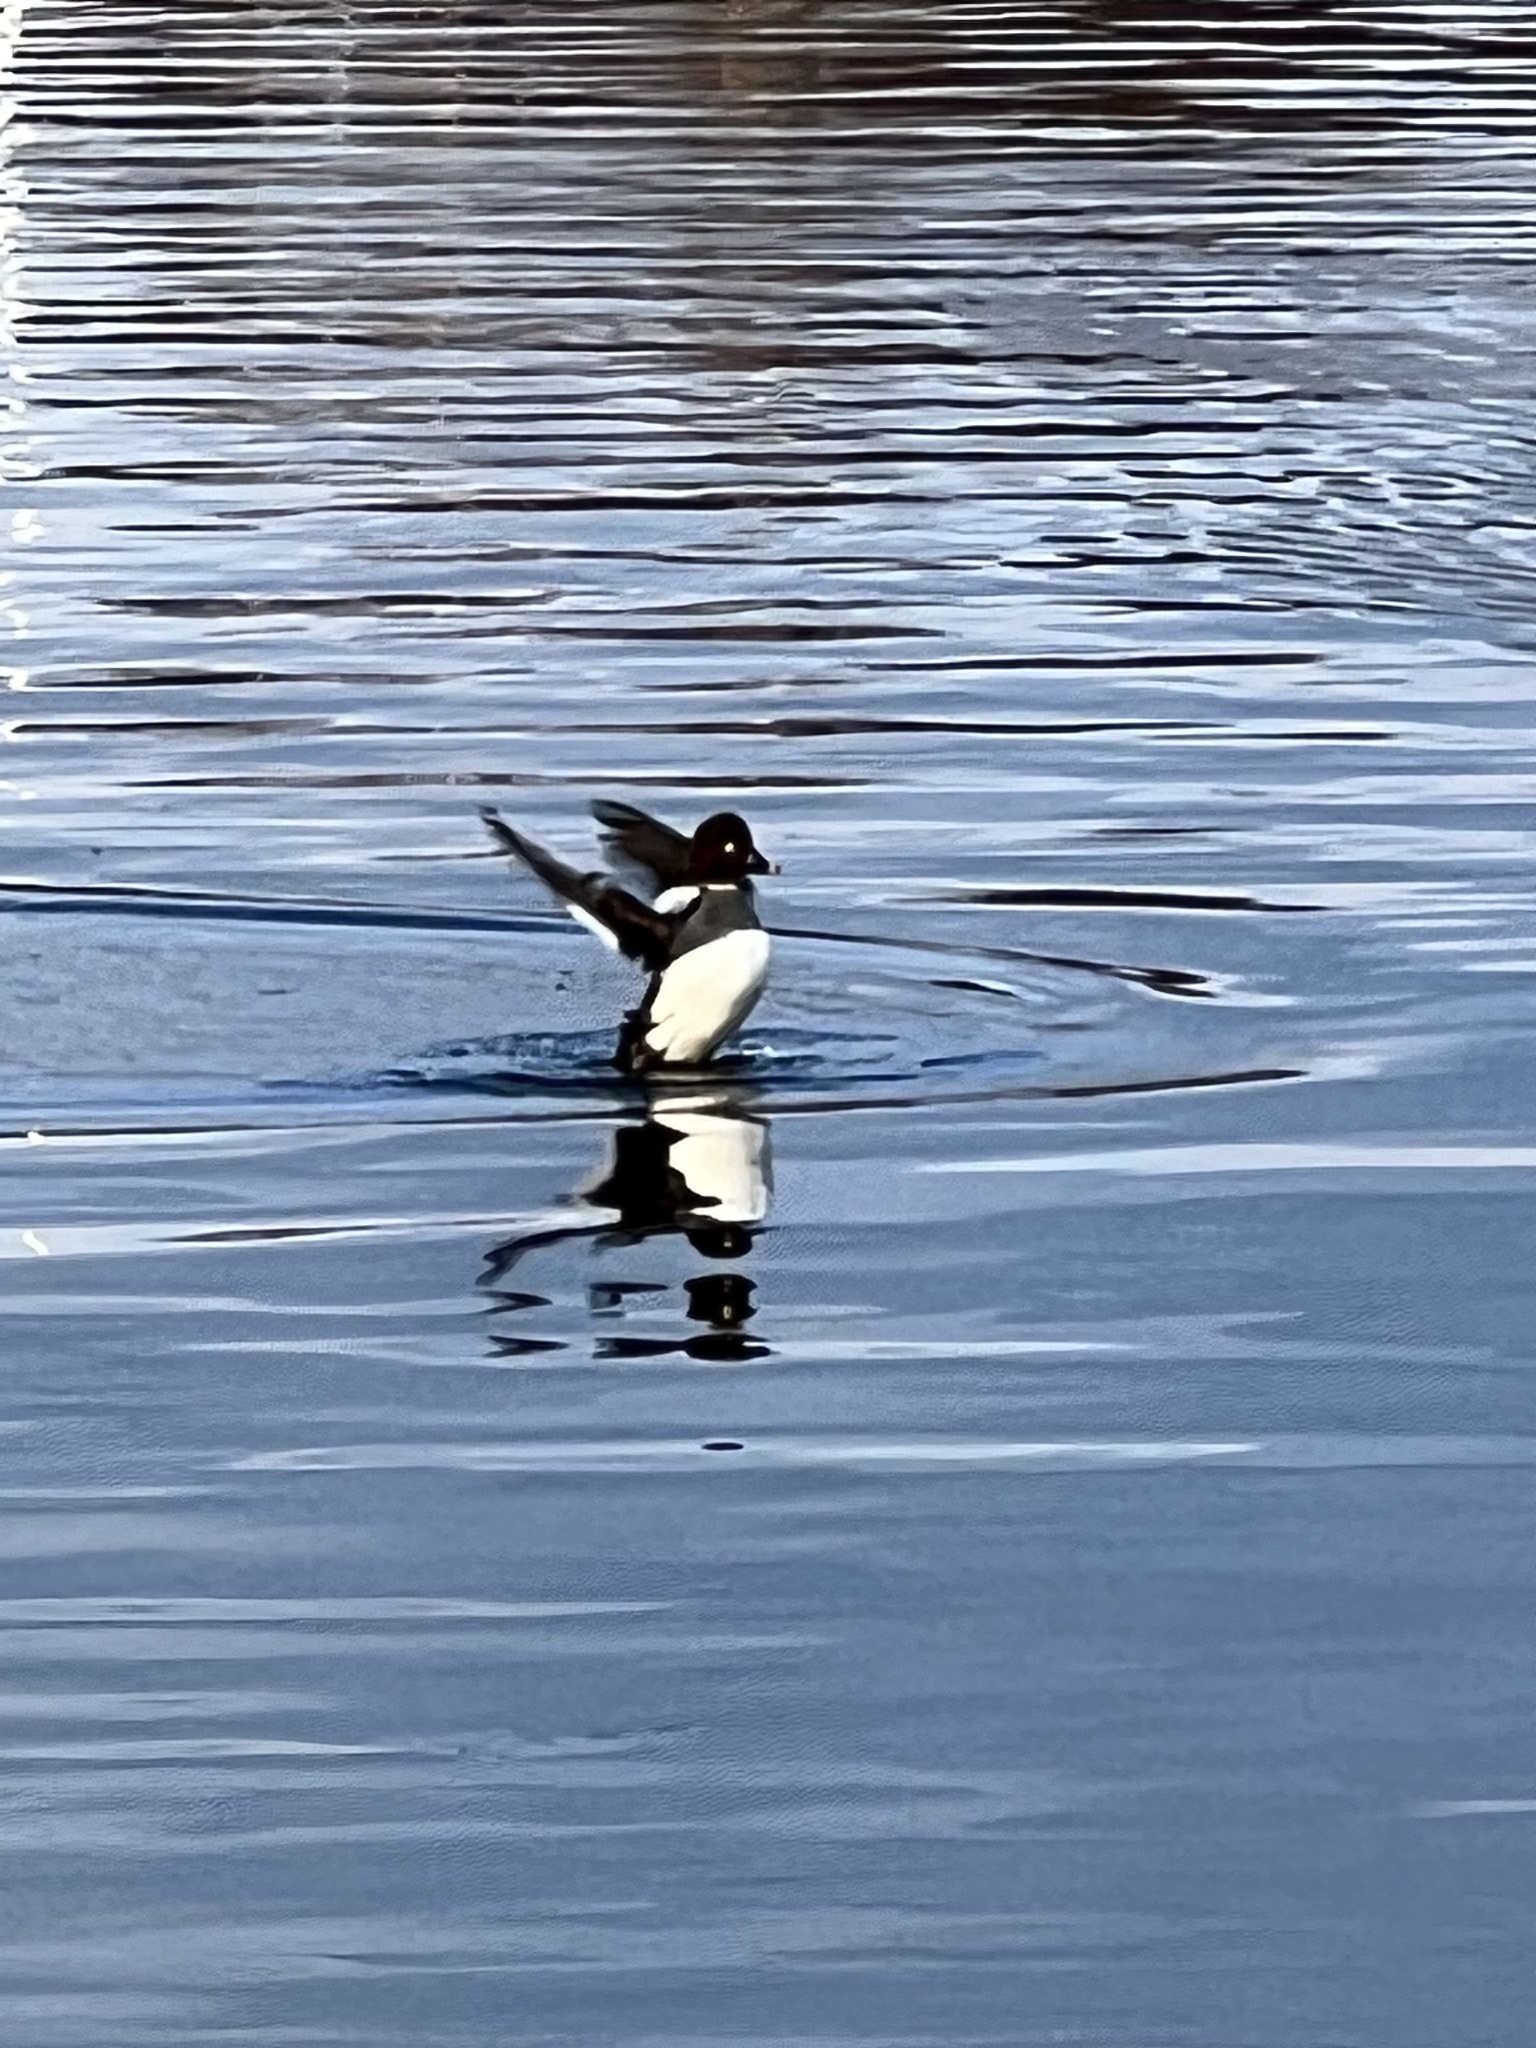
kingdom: Animalia
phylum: Chordata
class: Aves
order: Anseriformes
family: Anatidae
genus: Bucephala
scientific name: Bucephala clangula
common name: Common goldeneye
